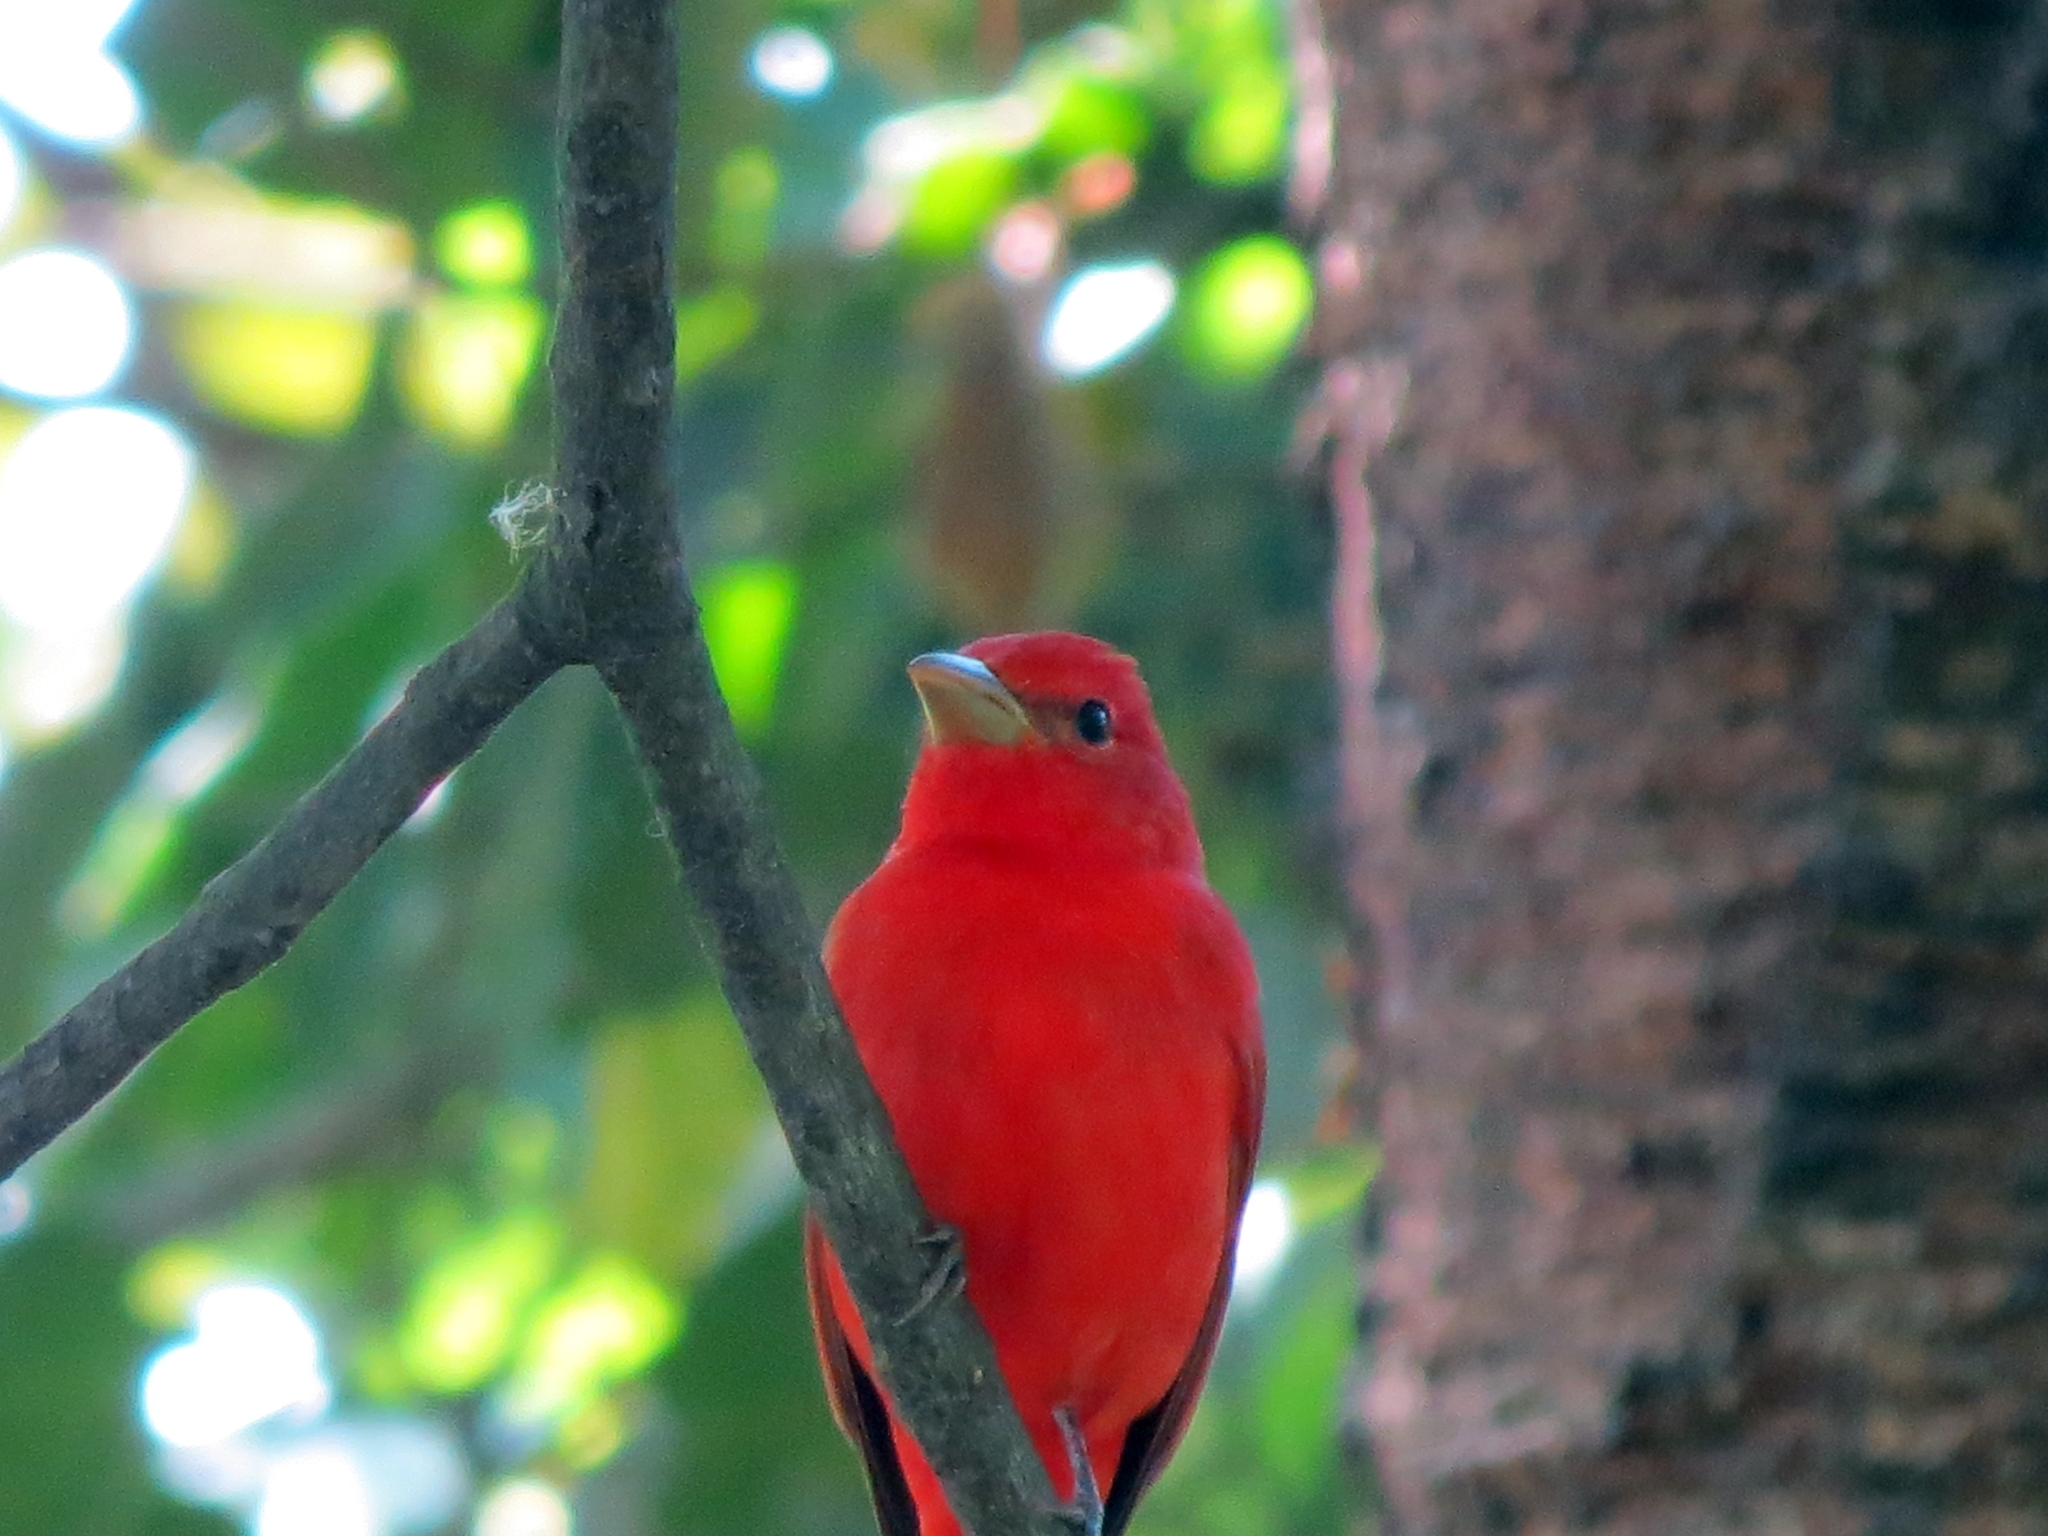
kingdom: Animalia
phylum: Chordata
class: Aves
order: Passeriformes
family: Cardinalidae
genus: Piranga
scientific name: Piranga rubra
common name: Summer tanager
